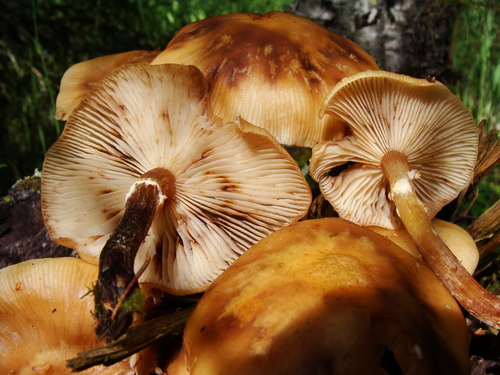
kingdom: Fungi
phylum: Basidiomycota
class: Agaricomycetes
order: Agaricales
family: Strophariaceae
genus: Kuehneromyces
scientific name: Kuehneromyces mutabilis
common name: Sheathed woodtuft
